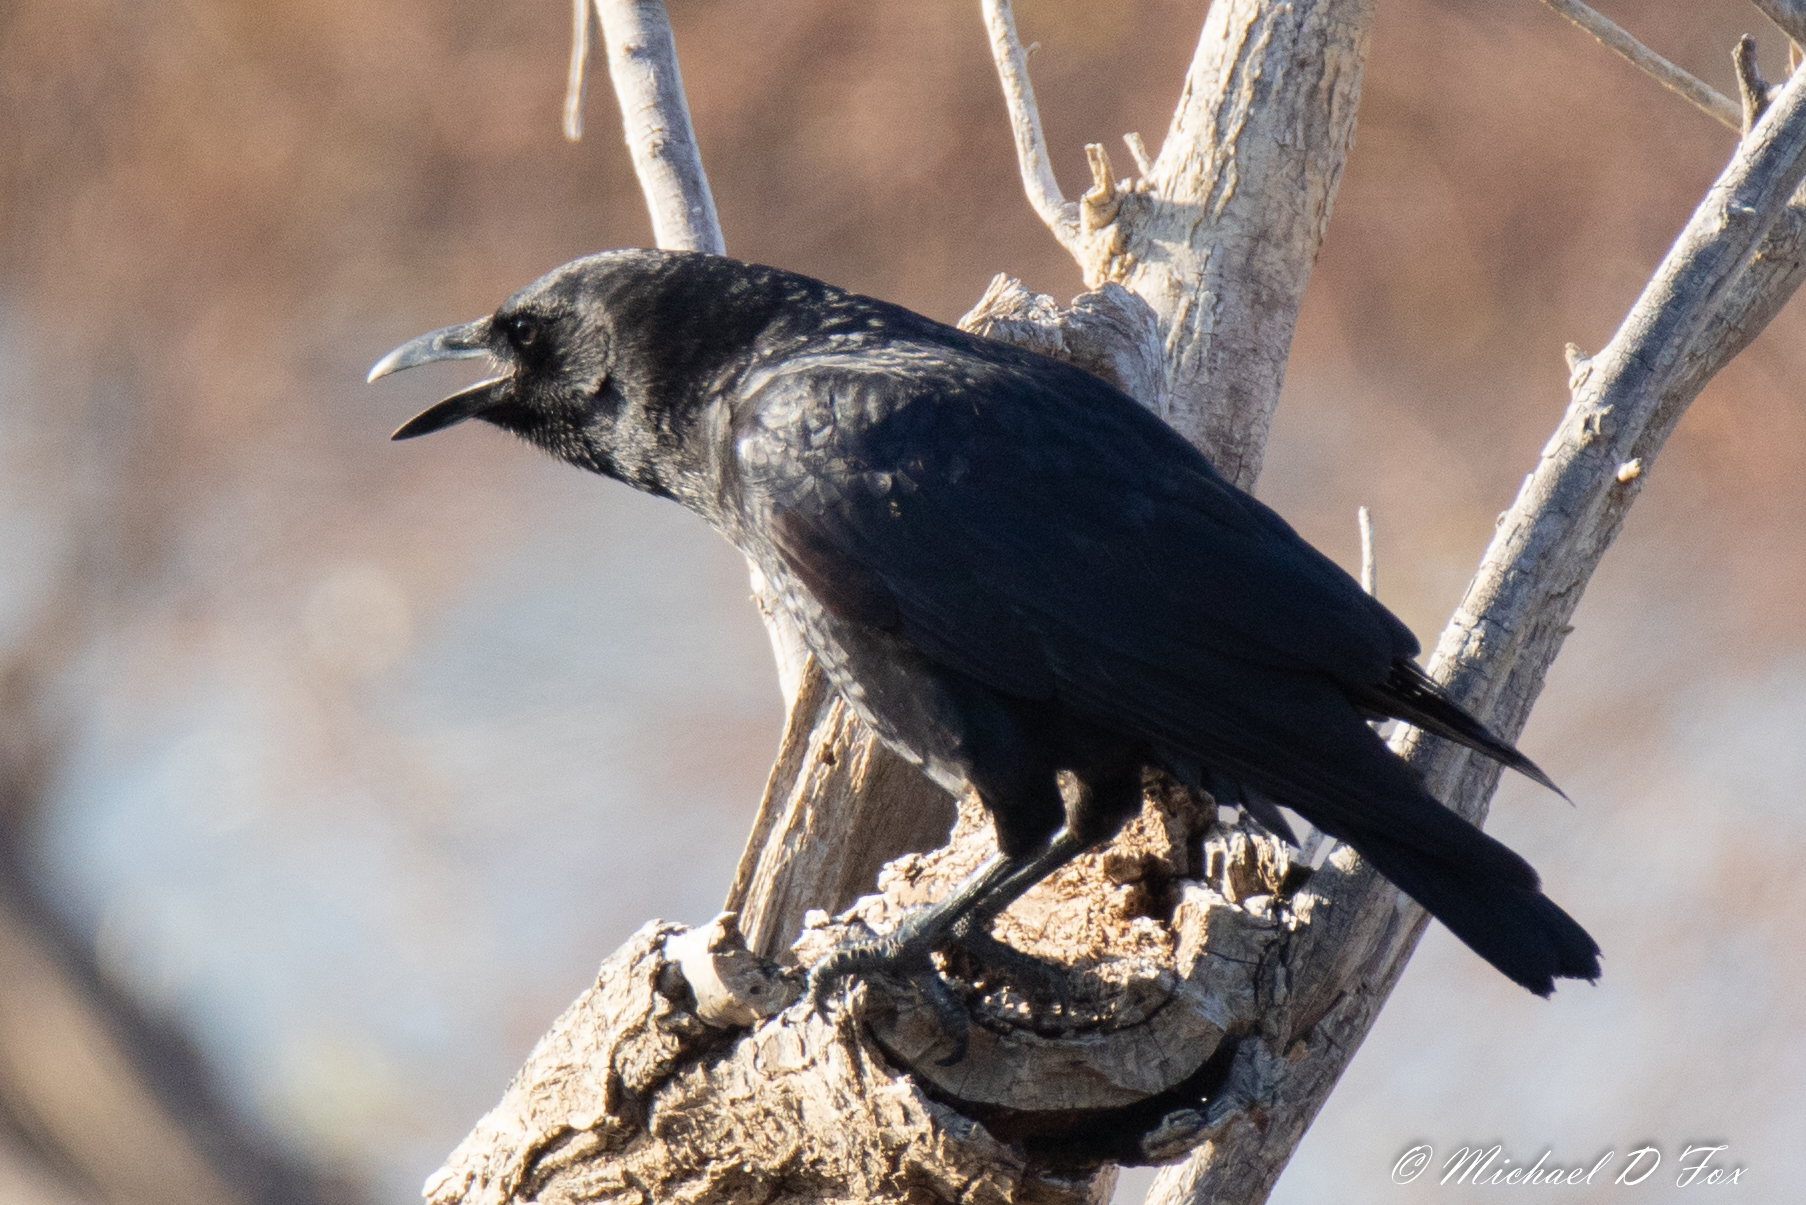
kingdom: Animalia
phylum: Chordata
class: Aves
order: Passeriformes
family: Corvidae
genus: Corvus
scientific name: Corvus brachyrhynchos
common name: American crow
